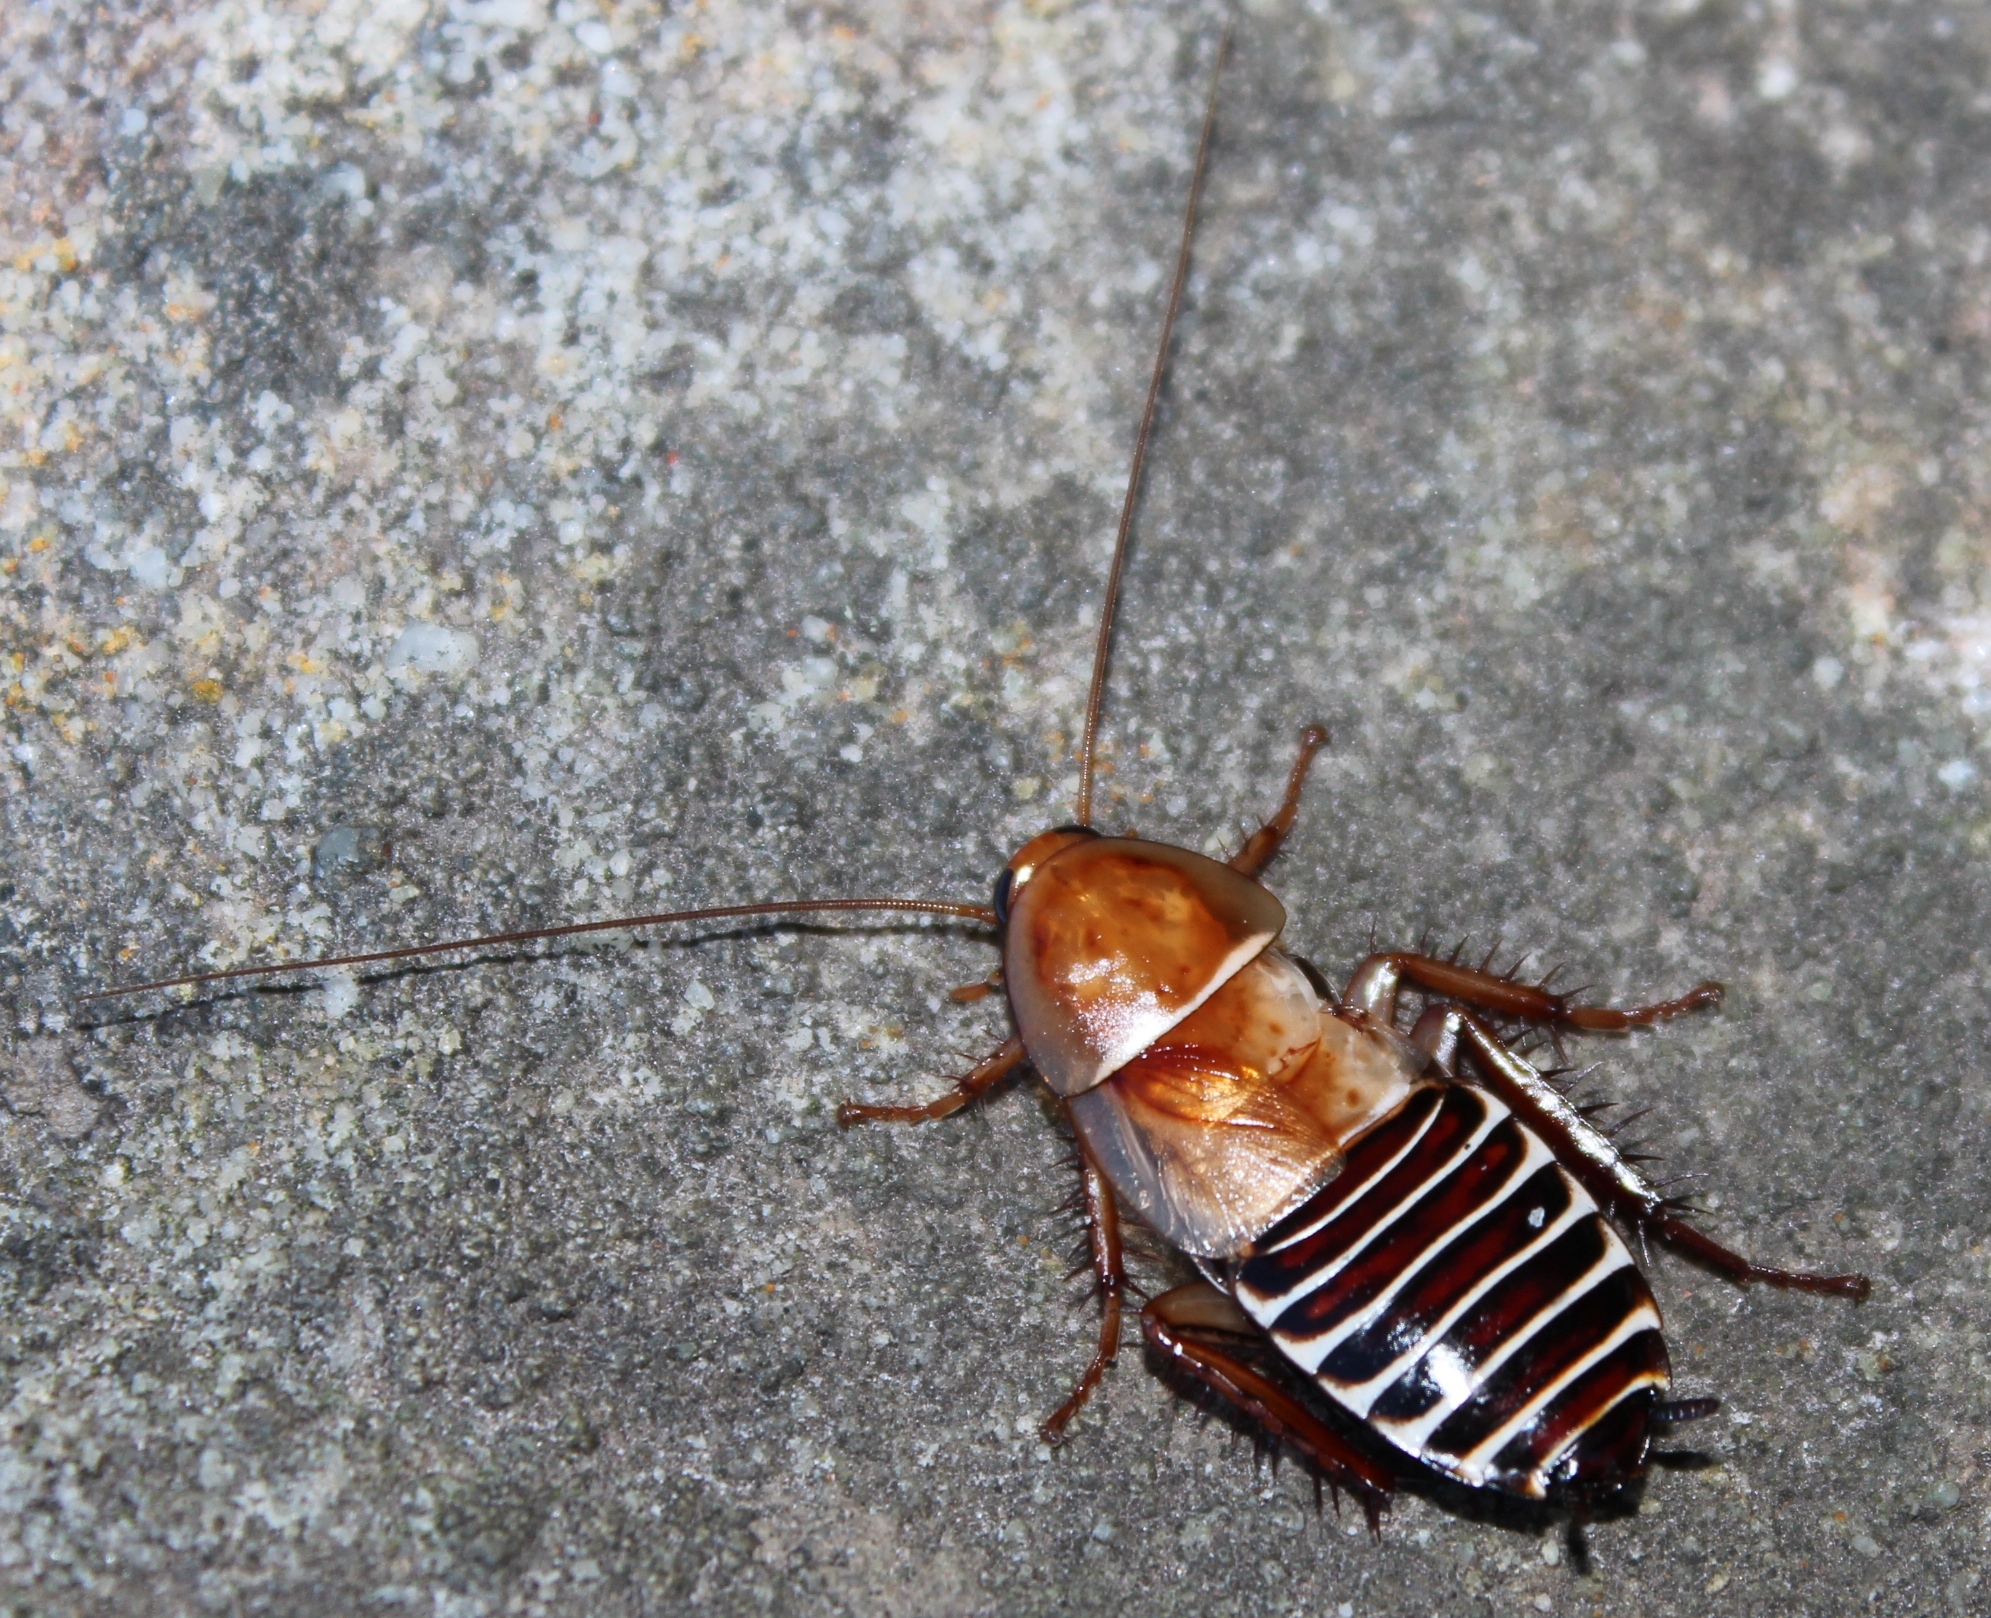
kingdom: Animalia
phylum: Arthropoda
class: Insecta
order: Blattodea
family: Ectobiidae
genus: Temnopteryx
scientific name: Temnopteryx phalerata
